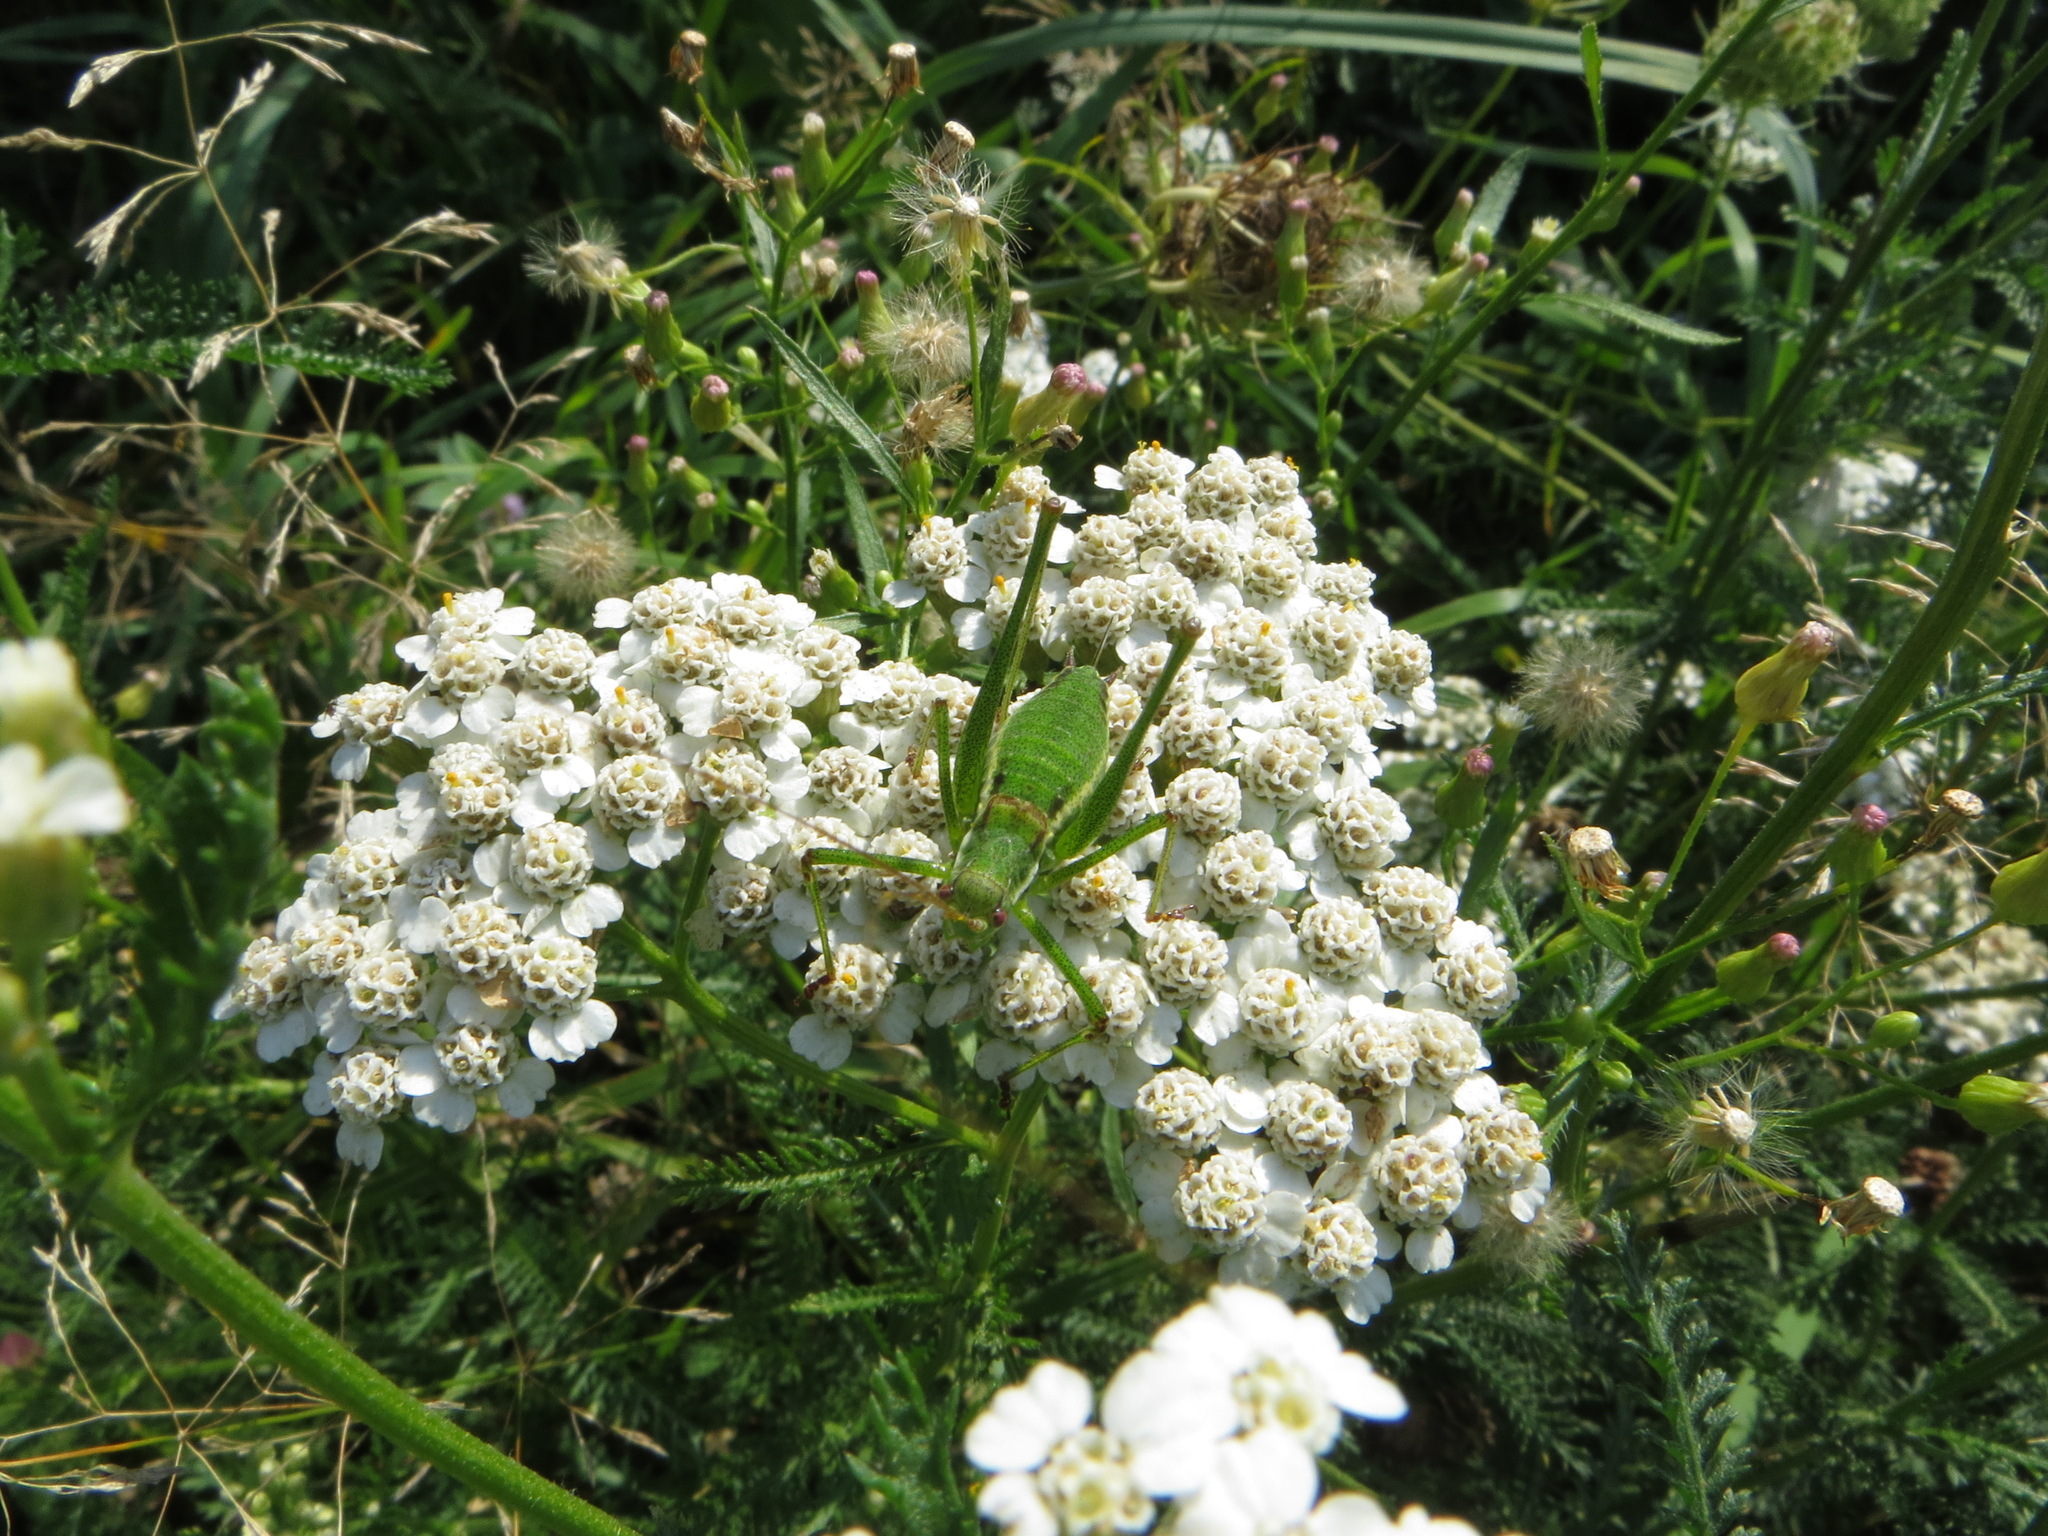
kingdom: Animalia
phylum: Arthropoda
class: Insecta
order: Orthoptera
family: Tettigoniidae
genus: Leptophyes
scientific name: Leptophyes albovittata
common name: Striped bush-cricket
